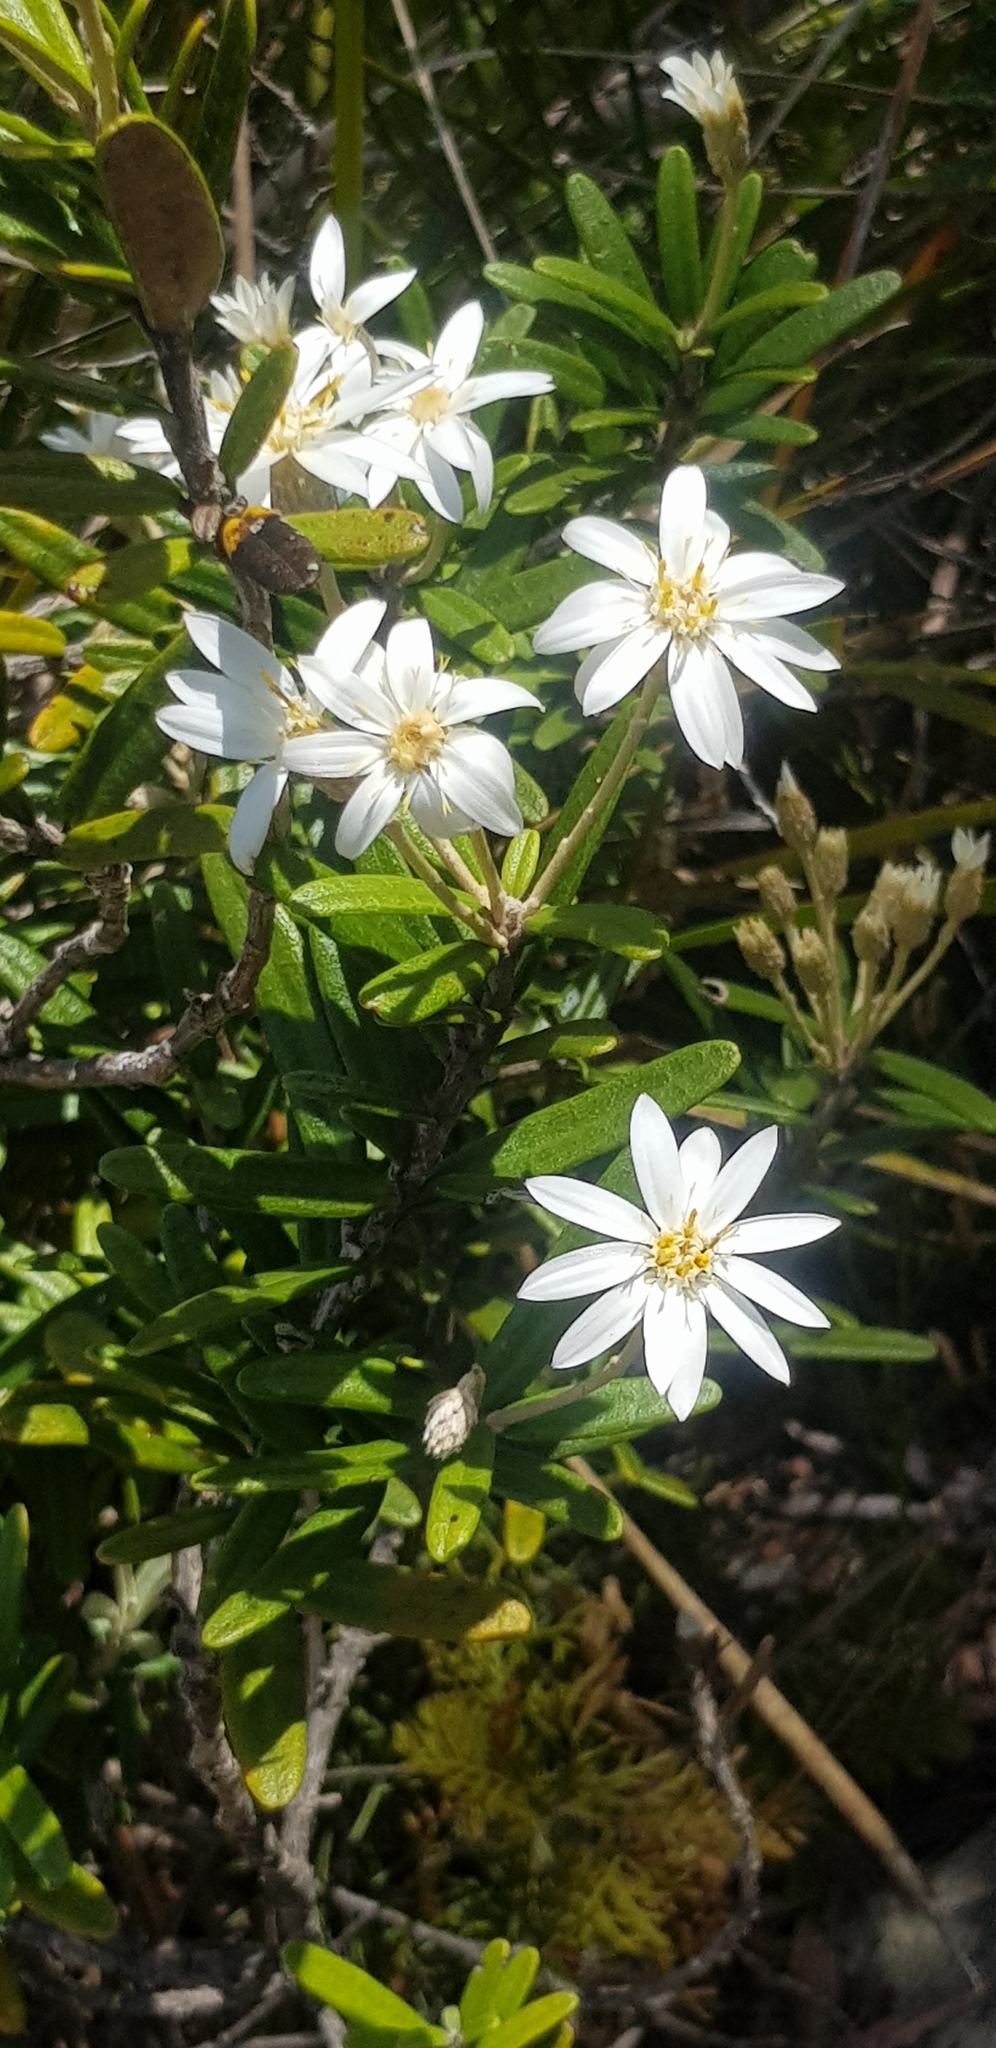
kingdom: Plantae
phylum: Tracheophyta
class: Magnoliopsida
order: Asterales
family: Asteraceae
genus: Olearia
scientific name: Olearia archeri
